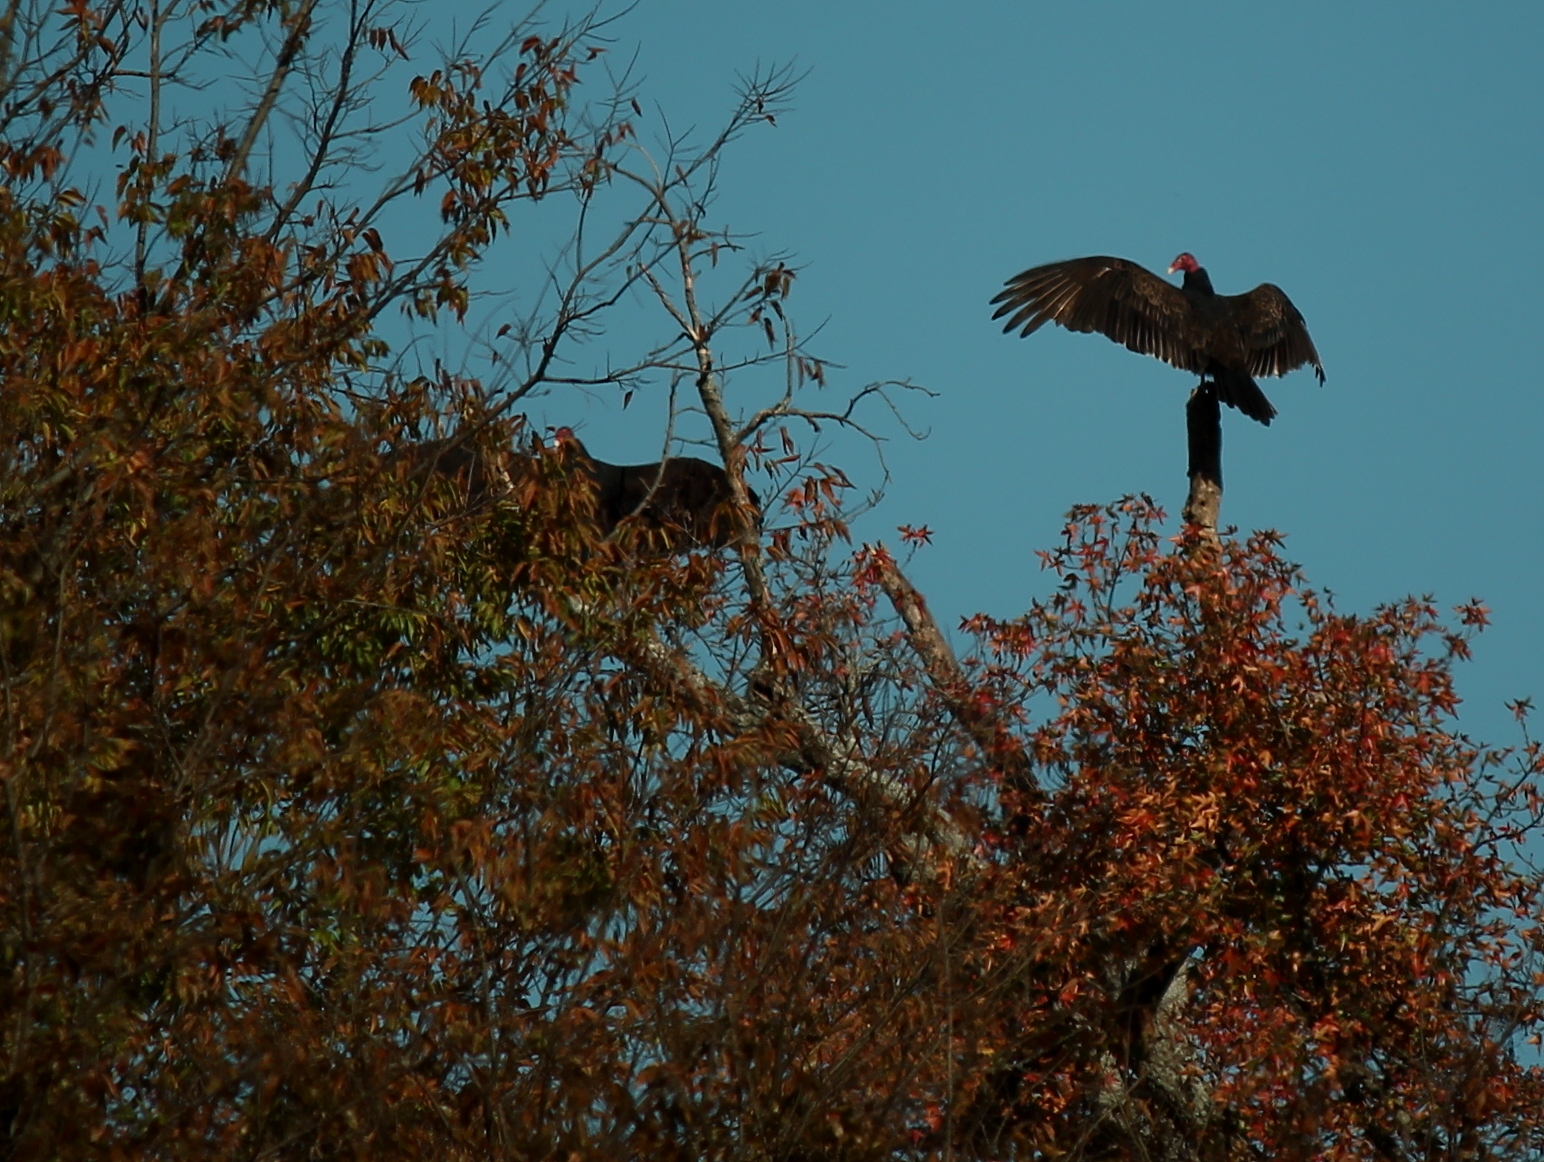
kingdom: Animalia
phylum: Chordata
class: Aves
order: Accipitriformes
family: Cathartidae
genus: Cathartes
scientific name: Cathartes aura
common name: Turkey vulture
